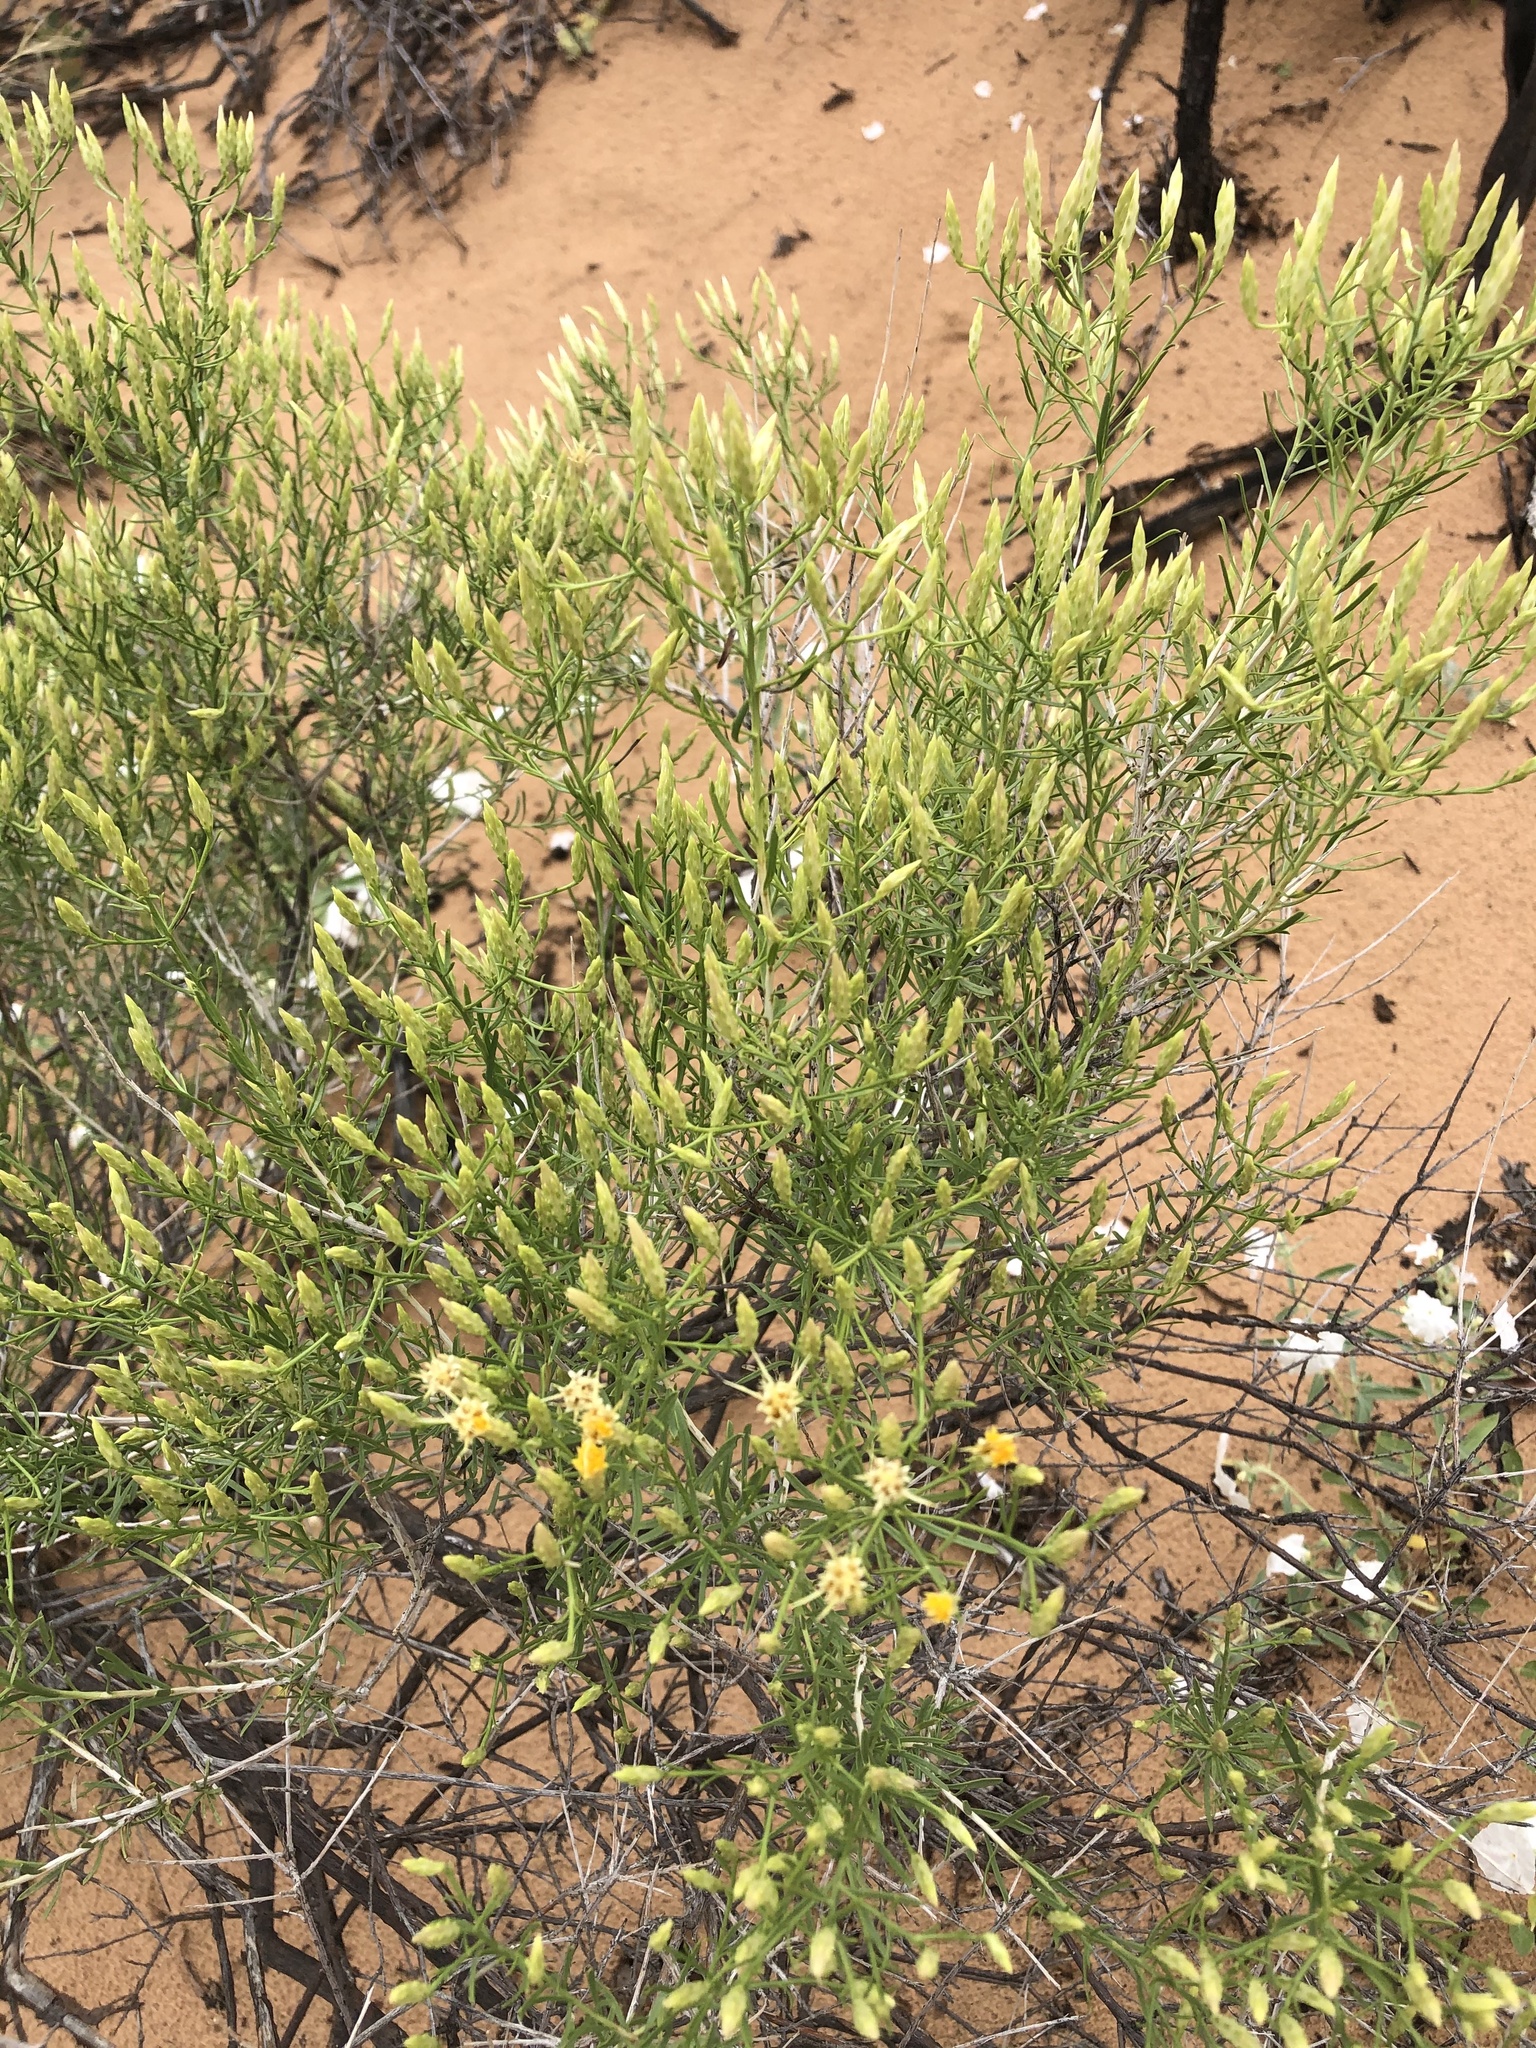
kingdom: Plantae
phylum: Tracheophyta
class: Magnoliopsida
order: Asterales
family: Asteraceae
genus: Lorandersonia
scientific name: Lorandersonia pulchella
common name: Southwestern rabbitbrush
